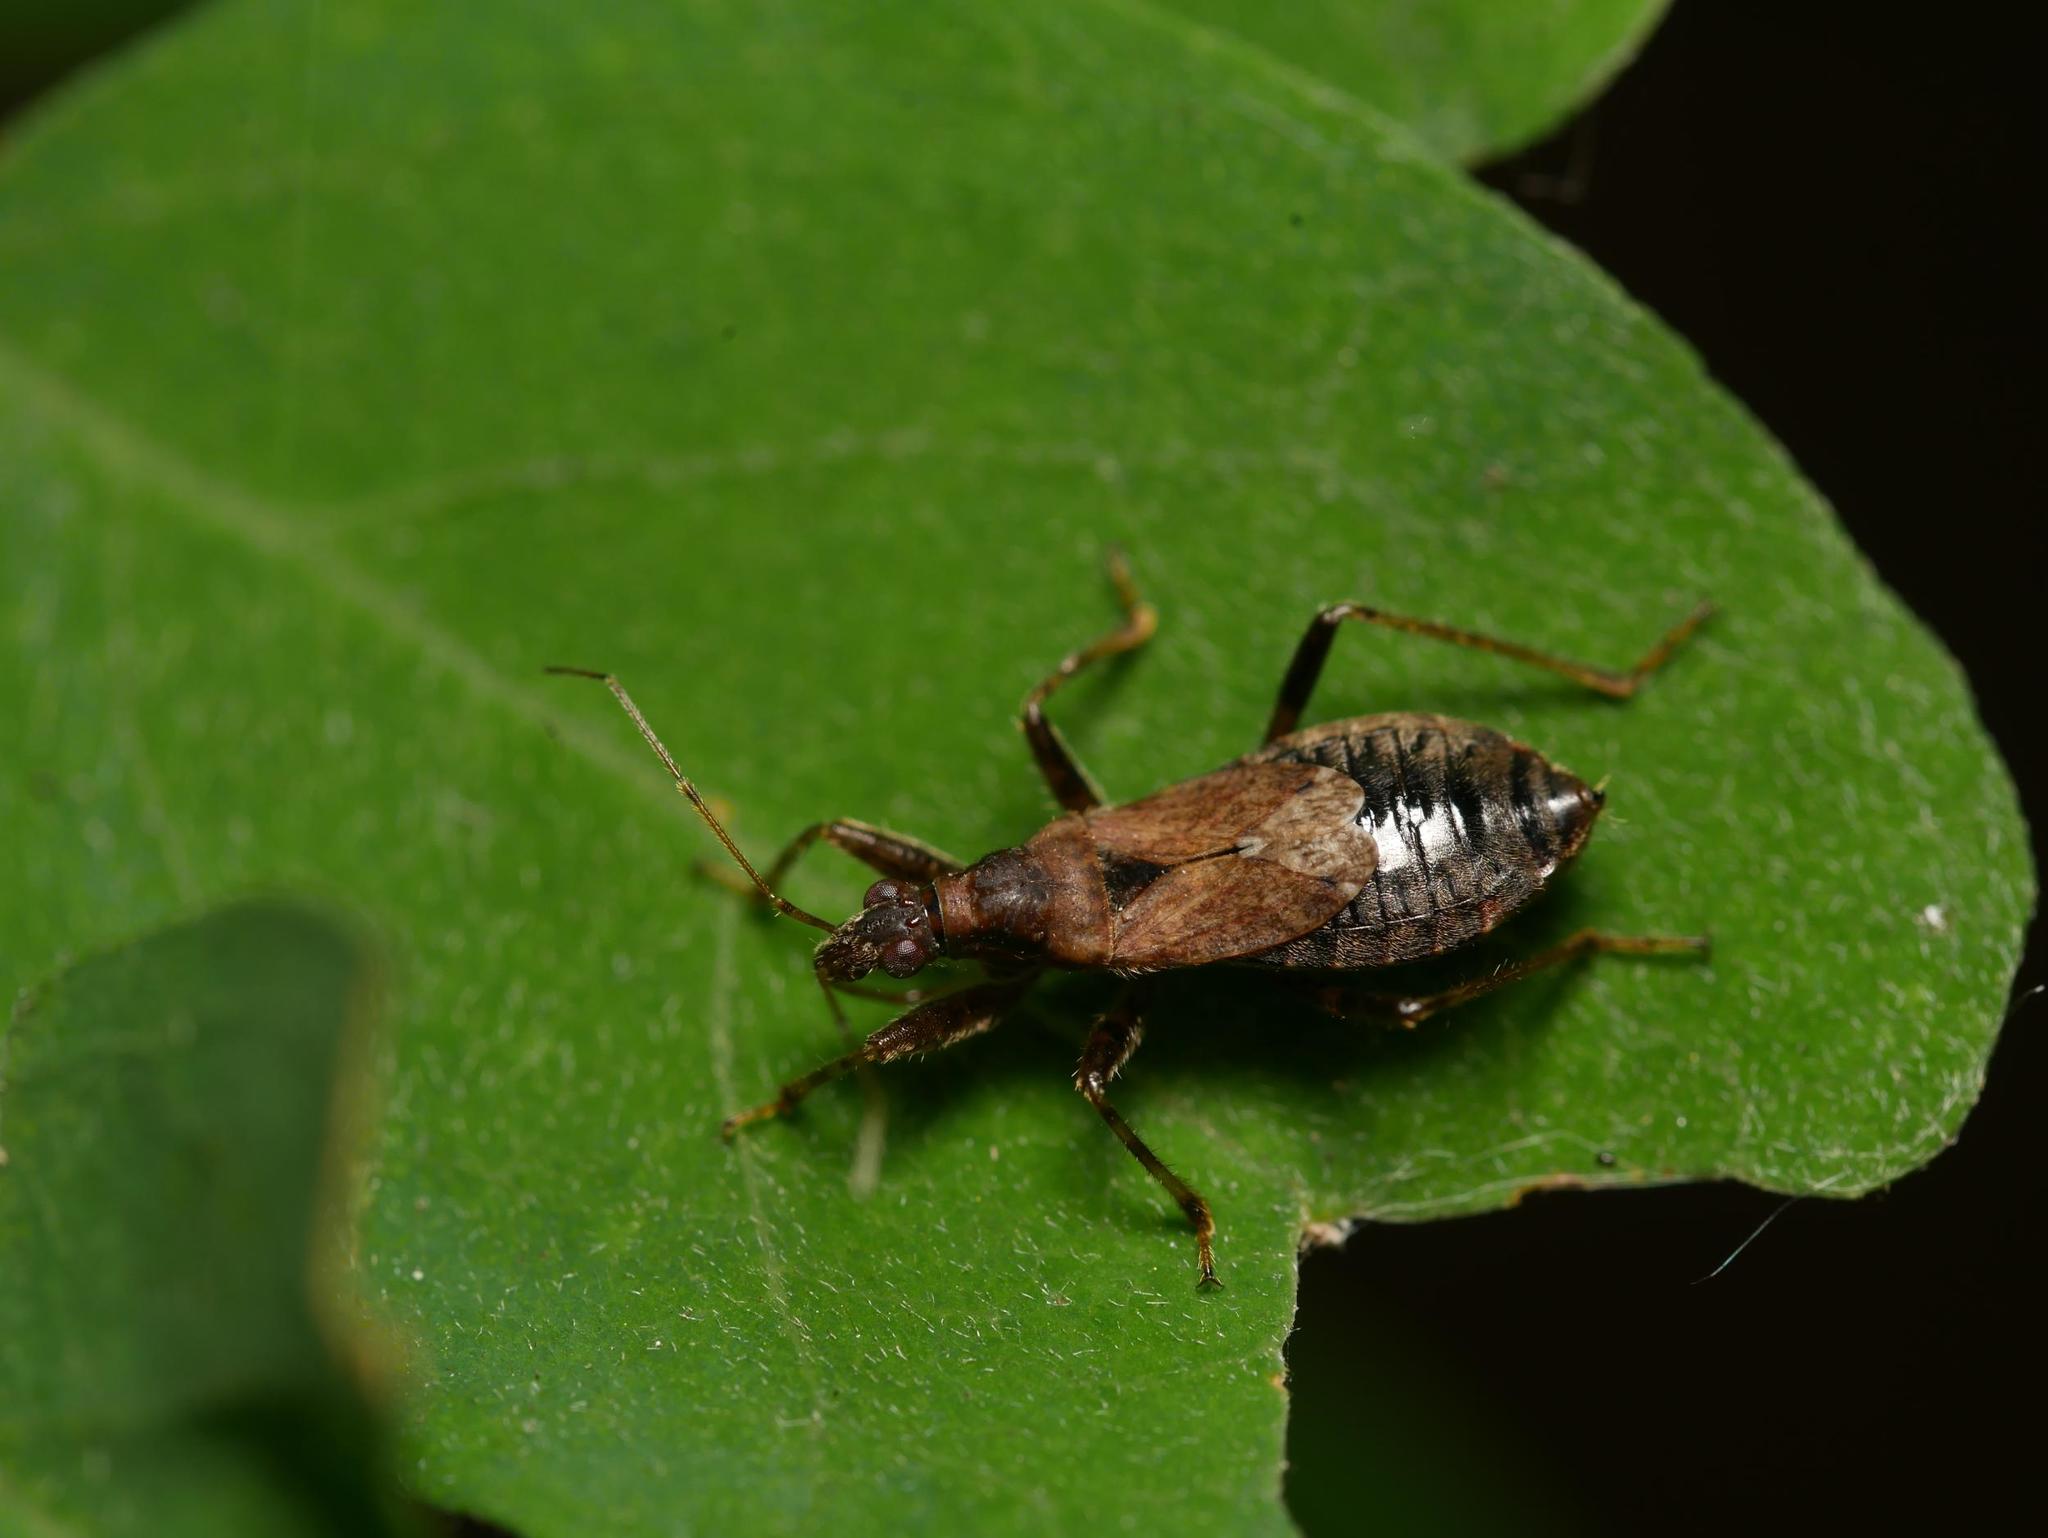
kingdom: Animalia
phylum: Arthropoda
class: Insecta
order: Hemiptera
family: Nabidae
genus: Himacerus
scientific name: Himacerus mirmicoides
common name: Ant damsel bug
